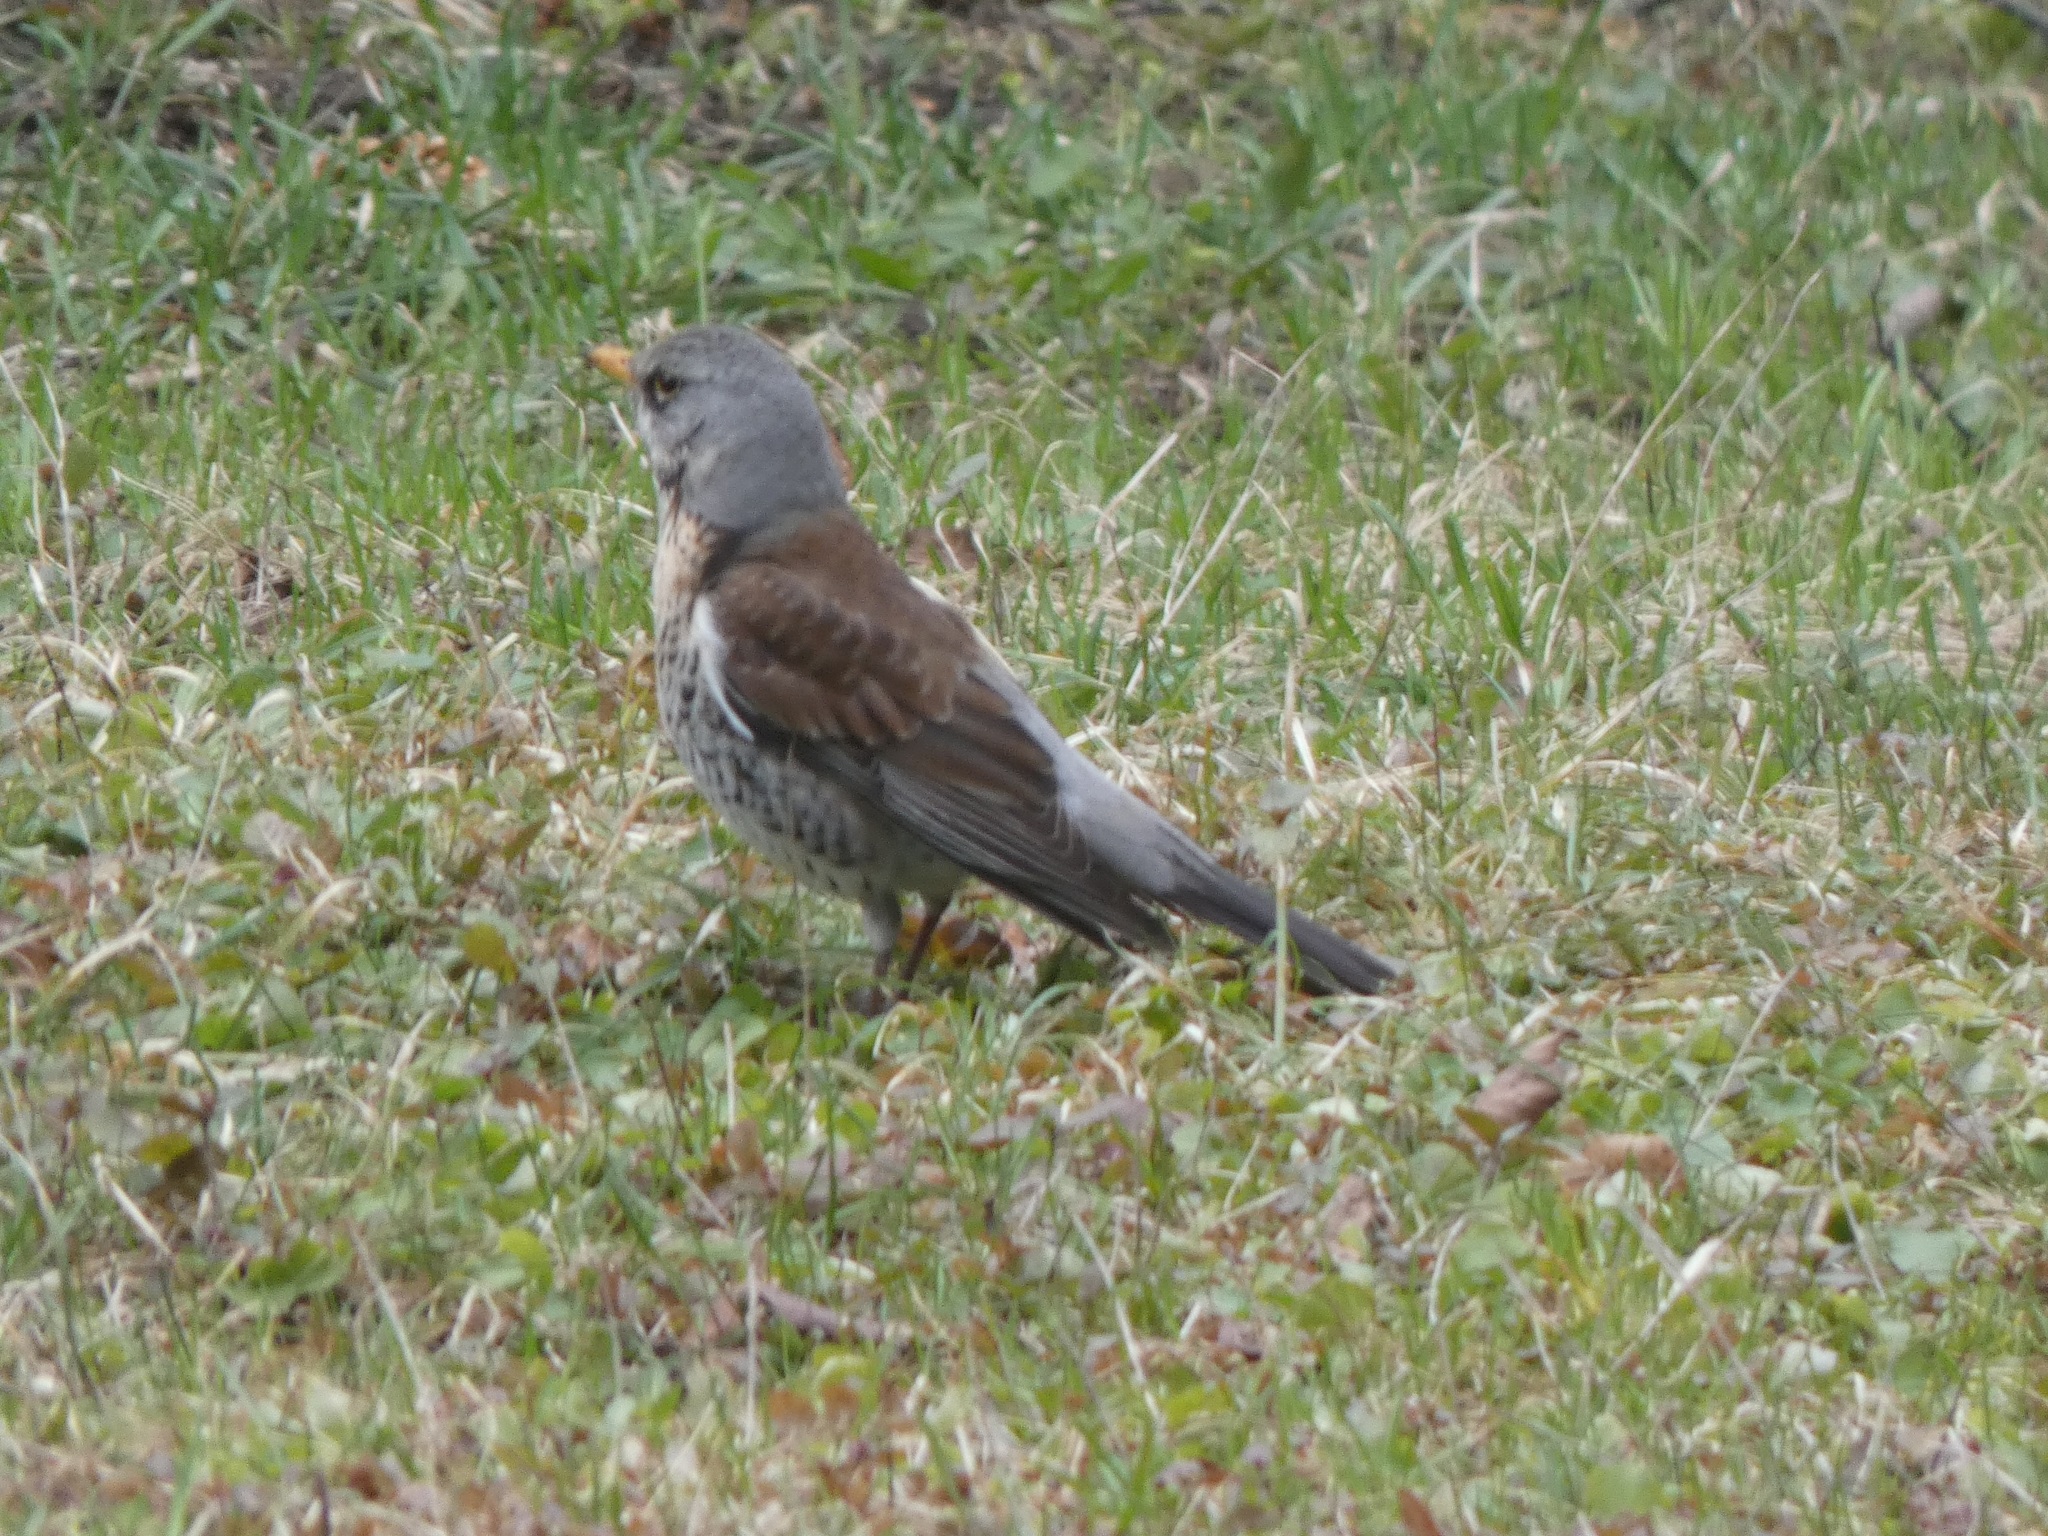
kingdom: Animalia
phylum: Chordata
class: Aves
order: Passeriformes
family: Turdidae
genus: Turdus
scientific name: Turdus pilaris
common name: Fieldfare
